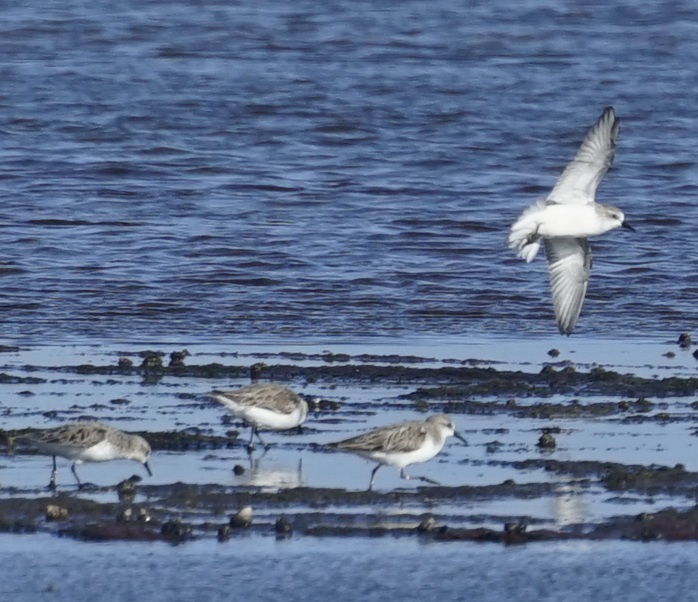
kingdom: Animalia
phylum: Chordata
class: Aves
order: Charadriiformes
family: Scolopacidae
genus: Calidris
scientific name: Calidris ruficollis
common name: Red-necked stint
